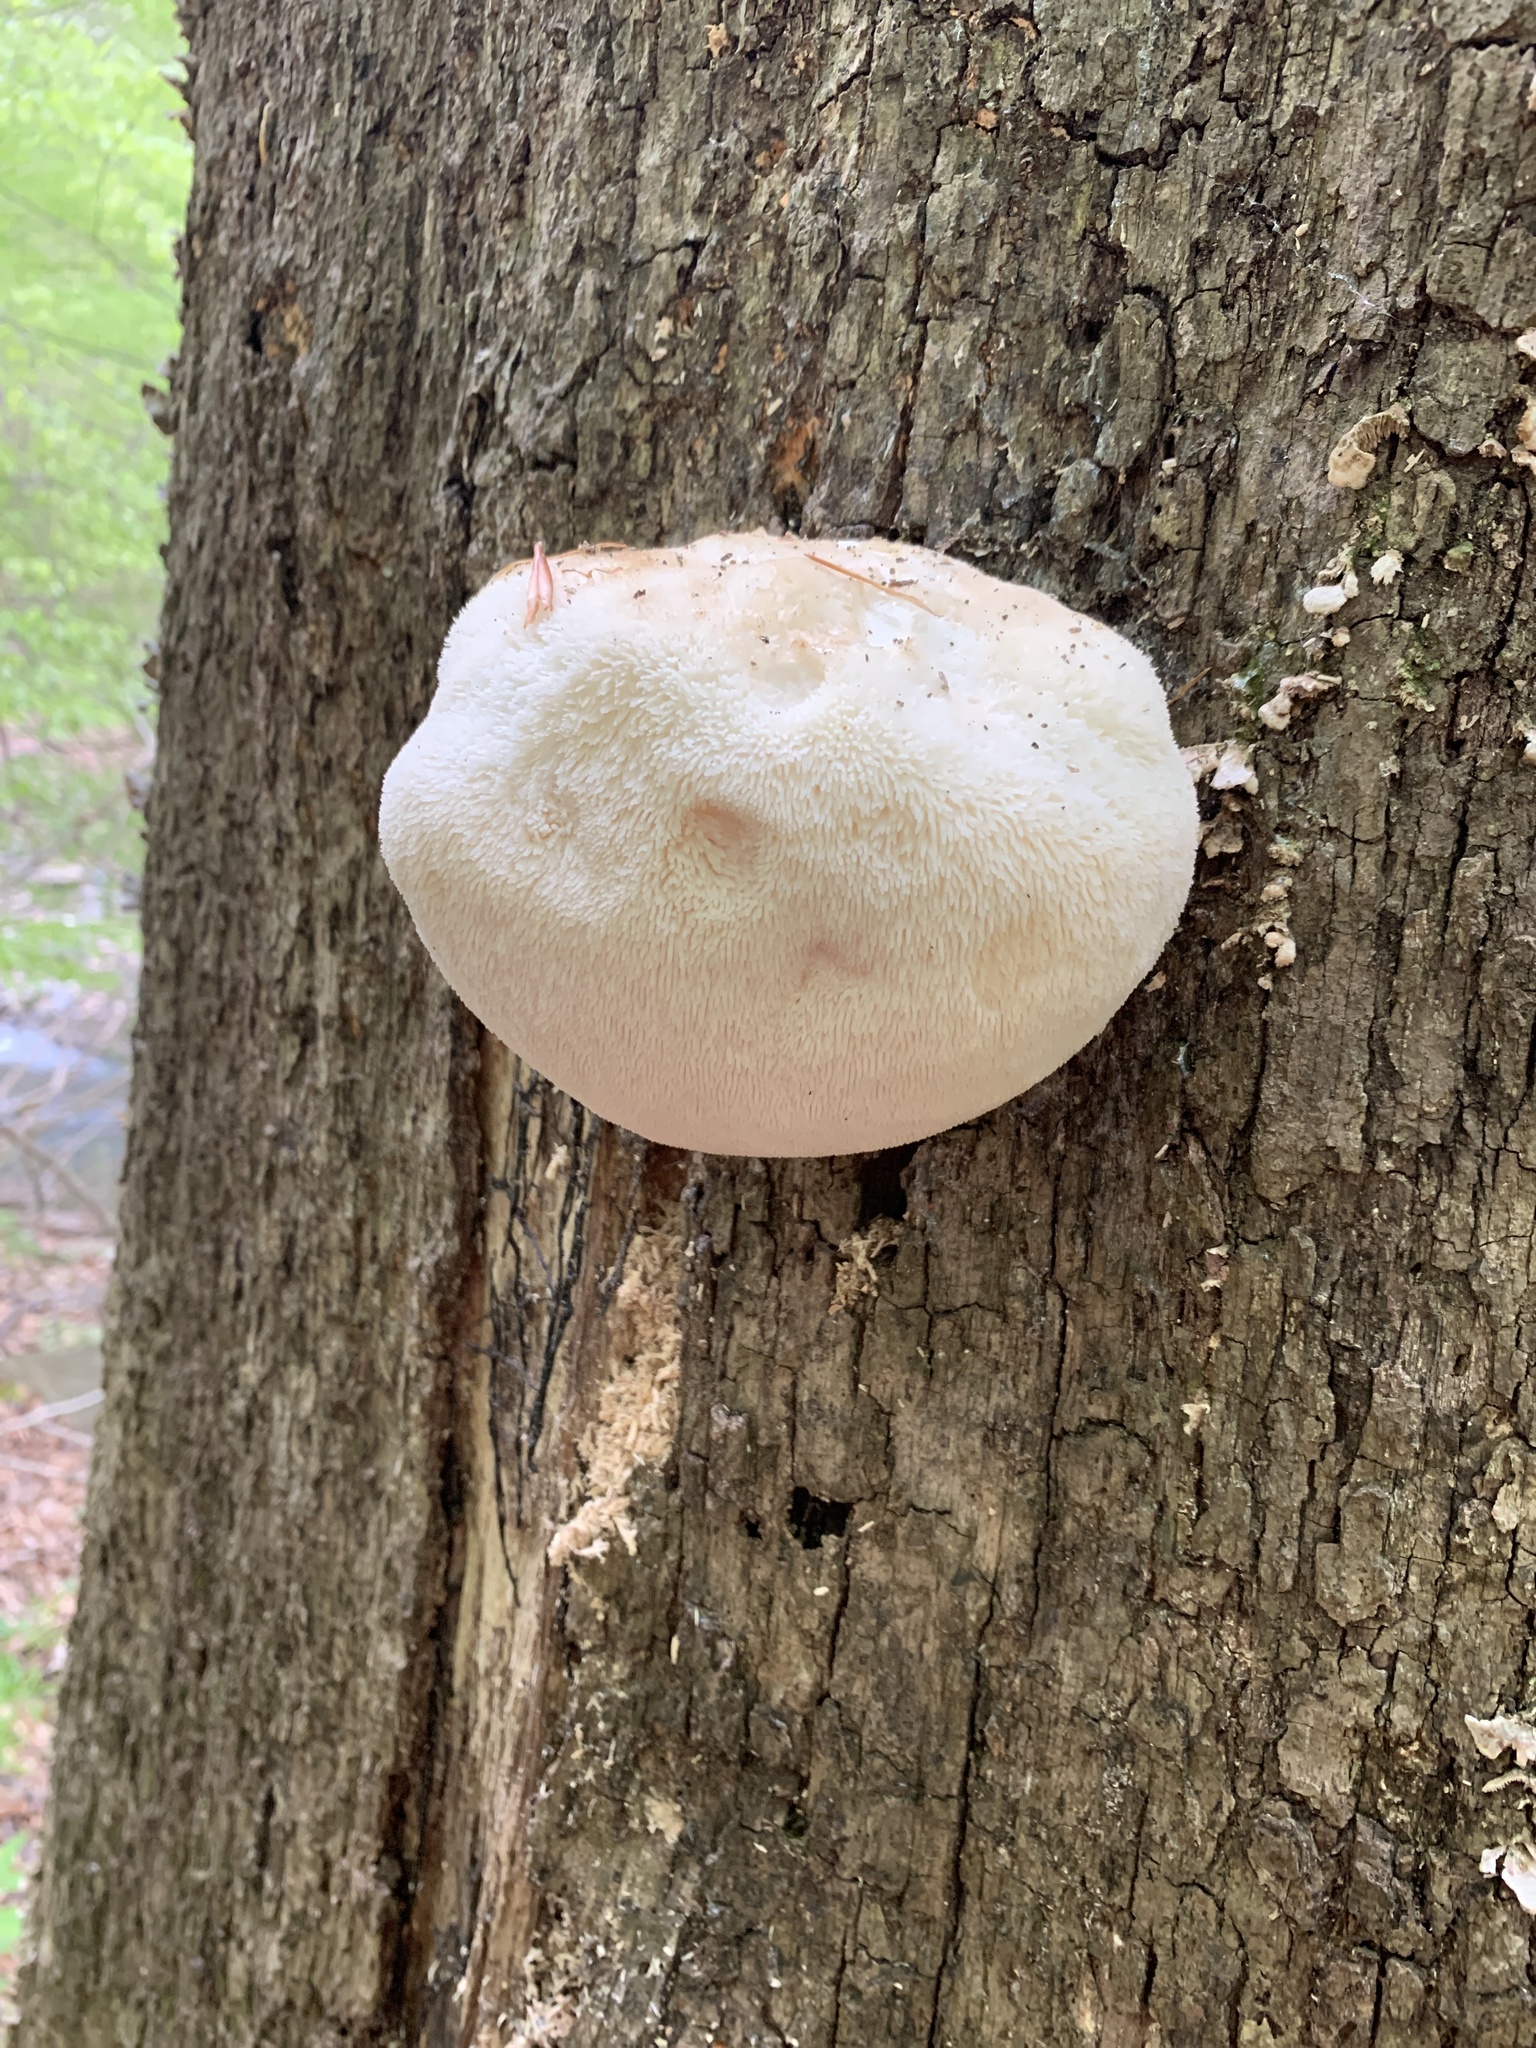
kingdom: Fungi
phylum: Basidiomycota
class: Agaricomycetes
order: Russulales
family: Hericiaceae
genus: Hericium
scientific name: Hericium erinaceus
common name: Bearded tooth
